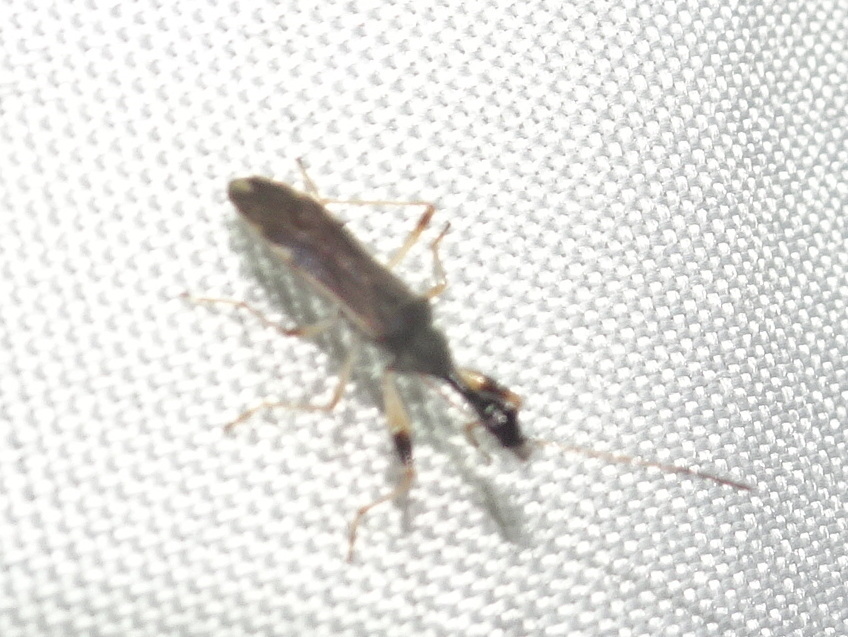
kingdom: Animalia
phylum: Arthropoda
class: Insecta
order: Hemiptera
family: Rhyparochromidae
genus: Myodocha
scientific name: Myodocha serripes
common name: Long-necked seed bug
